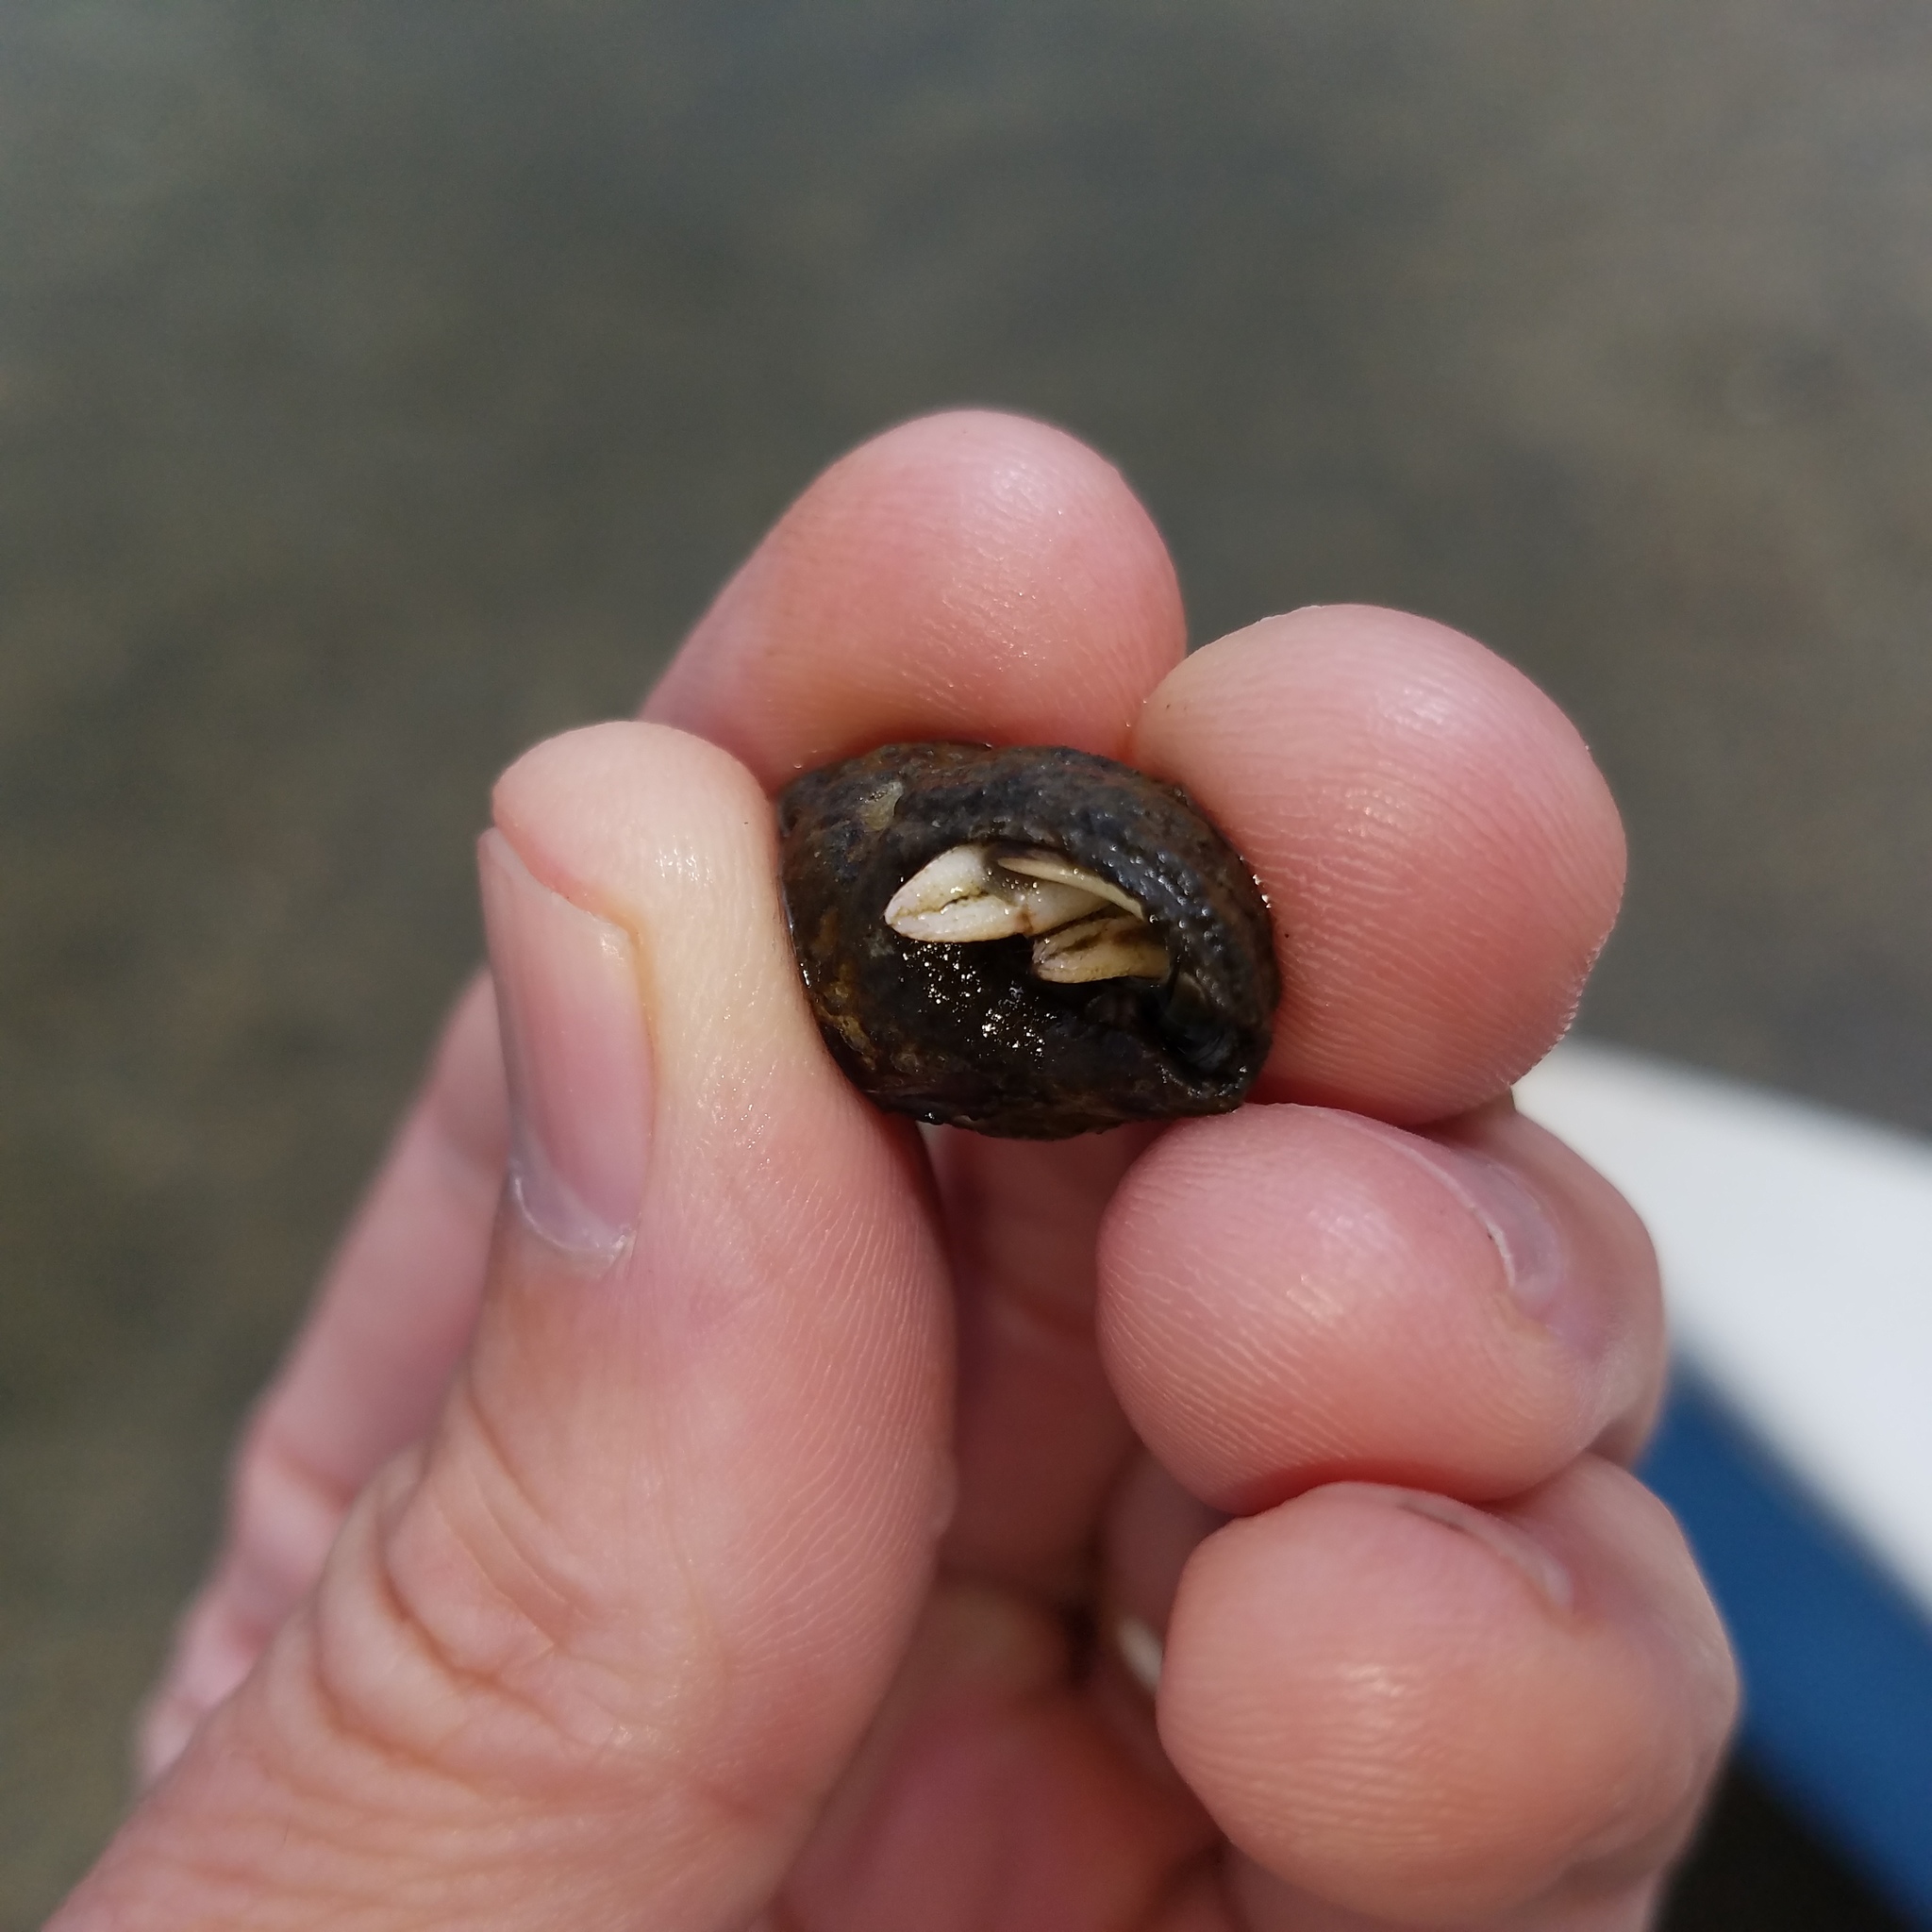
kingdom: Animalia
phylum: Arthropoda
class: Malacostraca
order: Decapoda
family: Paguridae
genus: Pagurus
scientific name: Pagurus longicarpus
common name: Long-armed hermit crab
